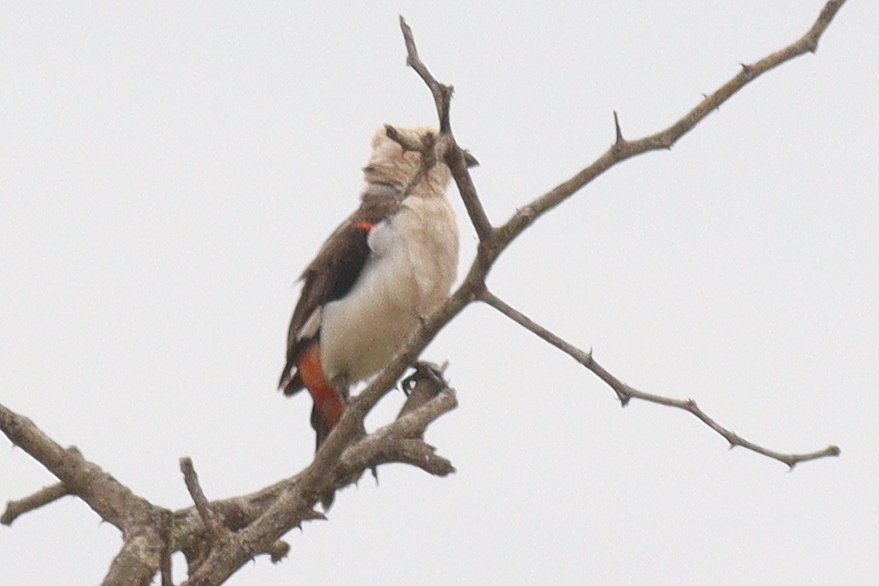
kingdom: Animalia
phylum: Chordata
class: Aves
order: Passeriformes
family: Ploceidae
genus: Dinemellia
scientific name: Dinemellia dinemelli
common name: White-headed buffalo weaver
